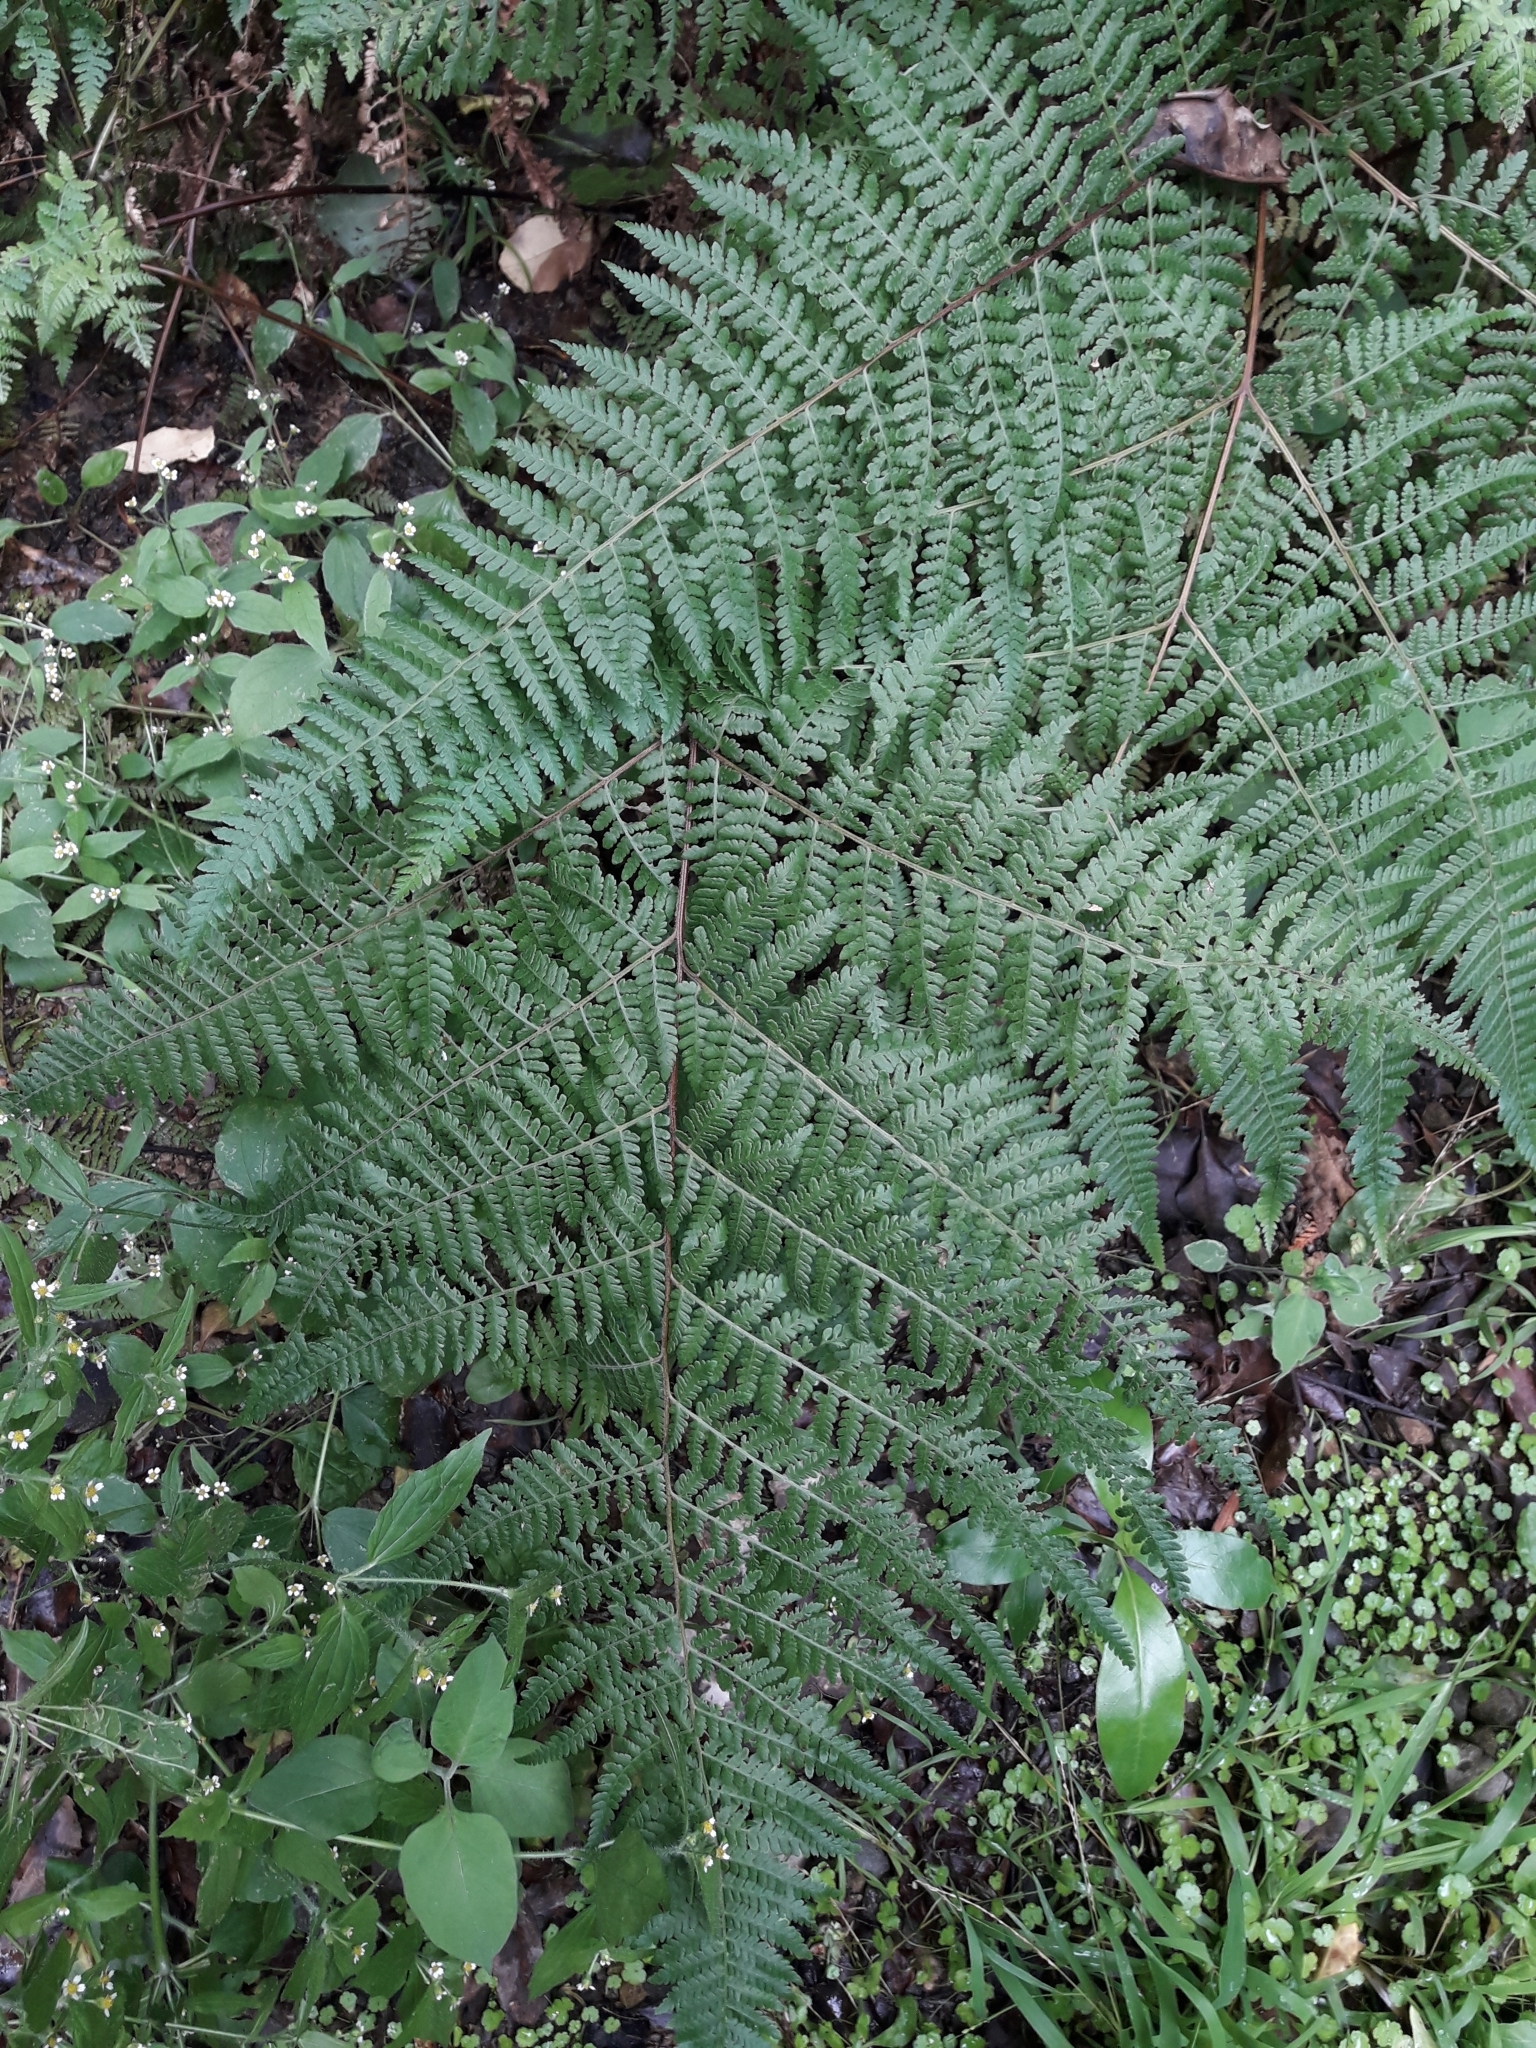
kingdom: Plantae
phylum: Tracheophyta
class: Polypodiopsida
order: Polypodiales
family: Dennstaedtiaceae
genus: Hypolepis
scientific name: Hypolepis ambigua
